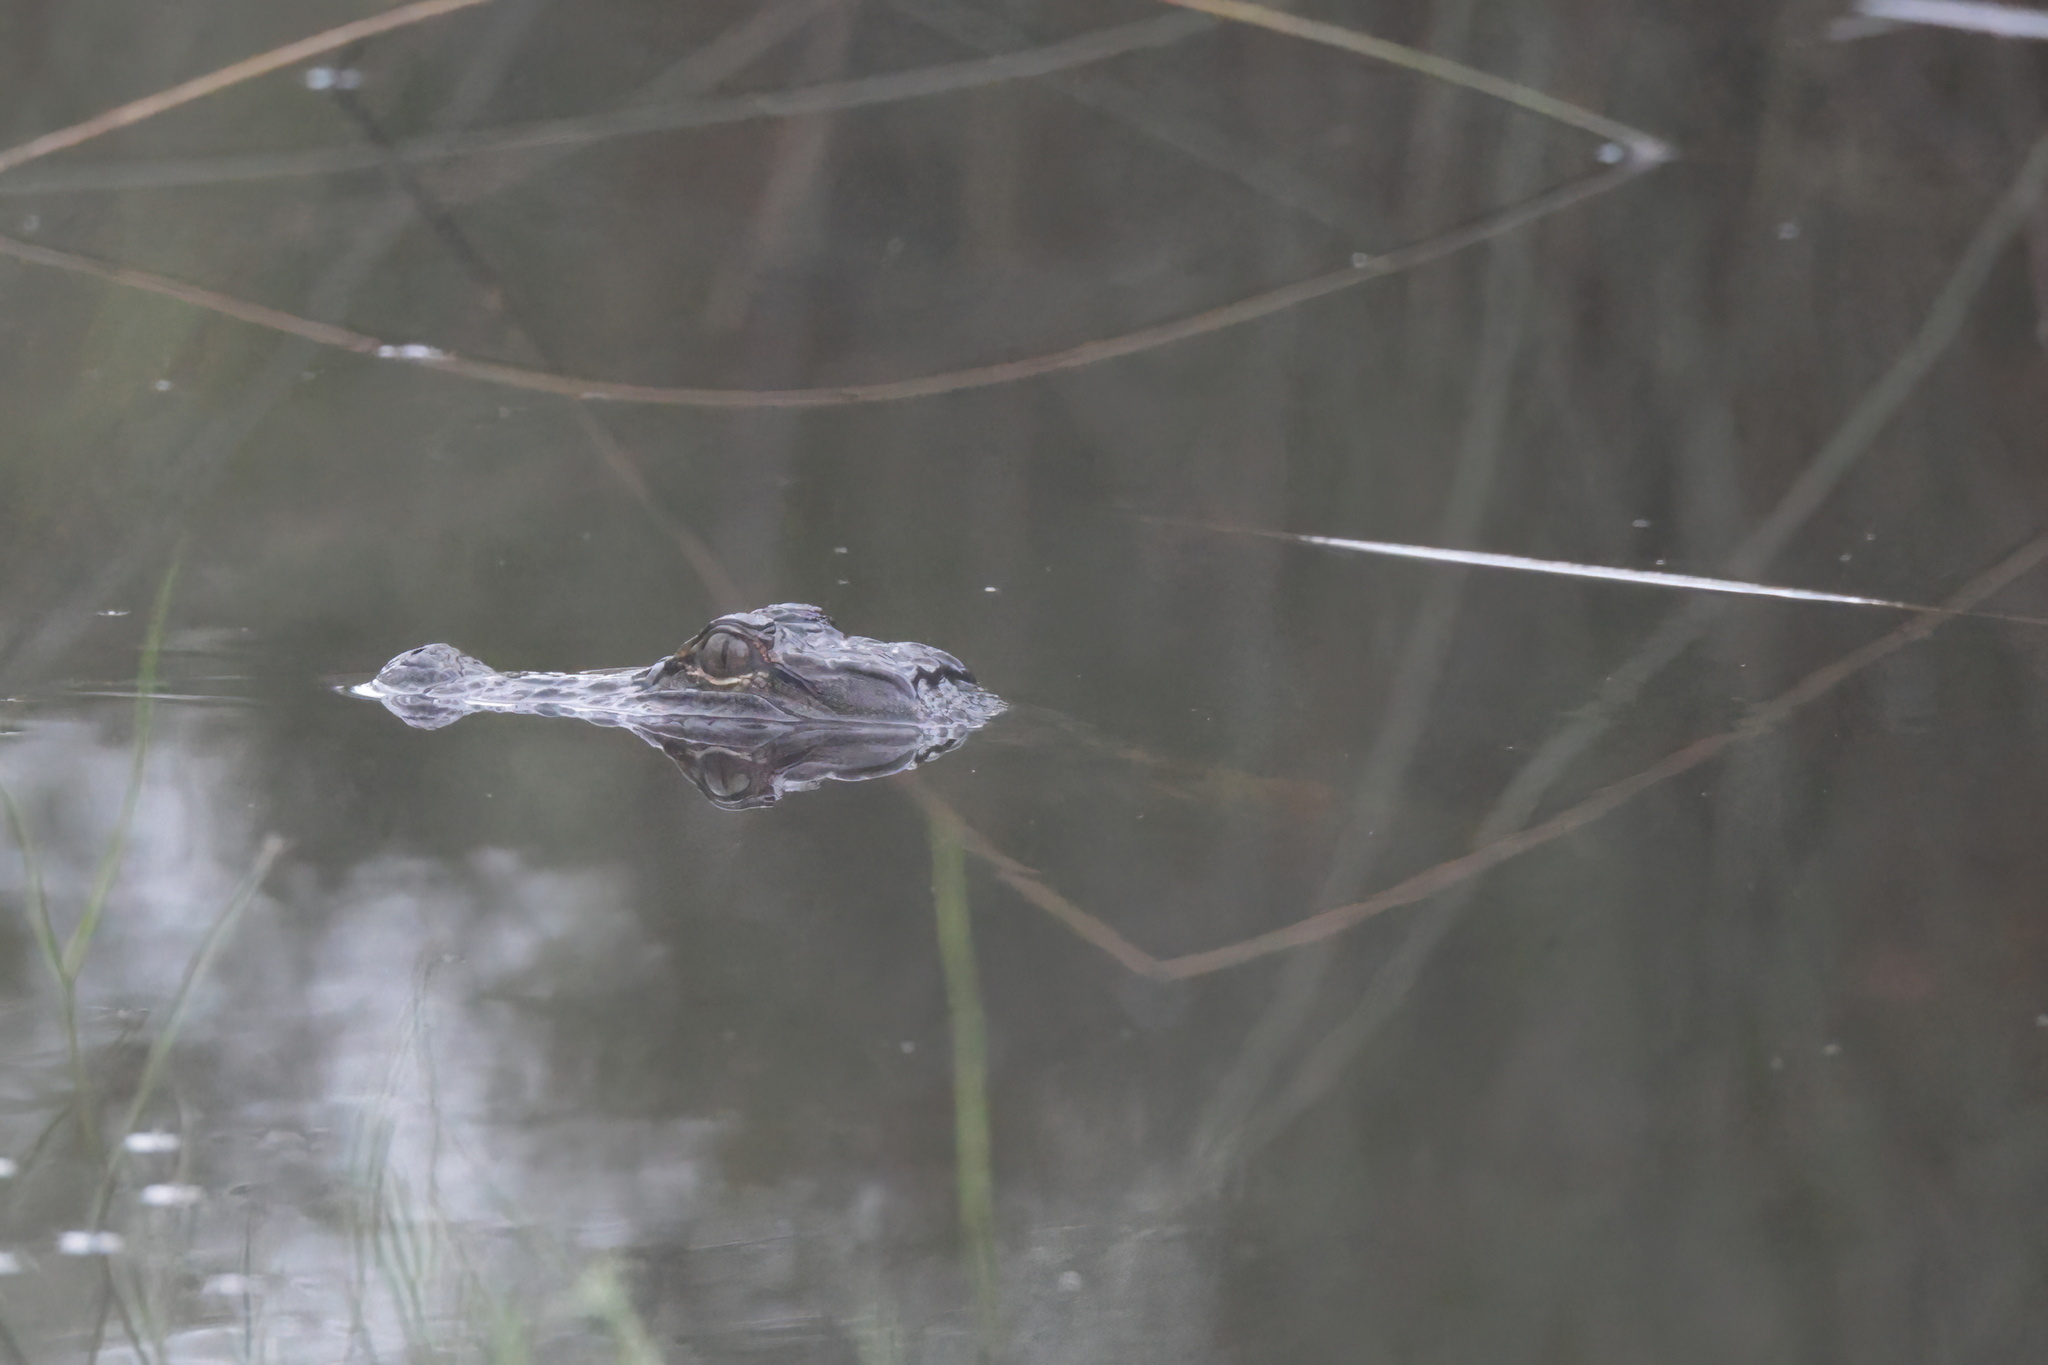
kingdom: Animalia
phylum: Chordata
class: Crocodylia
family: Alligatoridae
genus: Alligator
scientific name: Alligator mississippiensis
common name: American alligator
